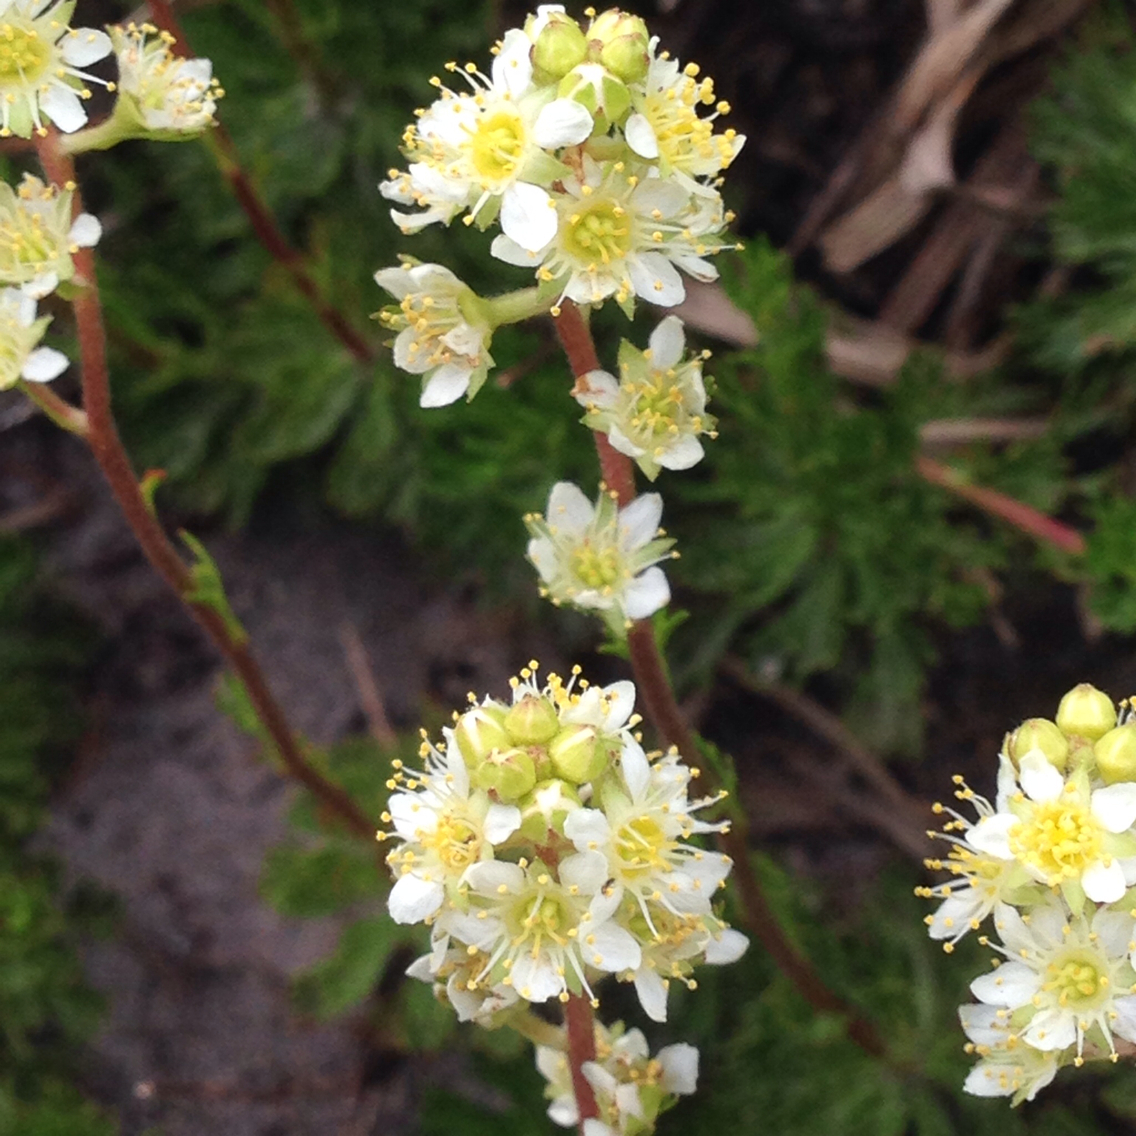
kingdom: Plantae
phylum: Tracheophyta
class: Magnoliopsida
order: Rosales
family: Rosaceae
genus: Luetkea
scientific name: Luetkea pectinata
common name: Partridgefoot
